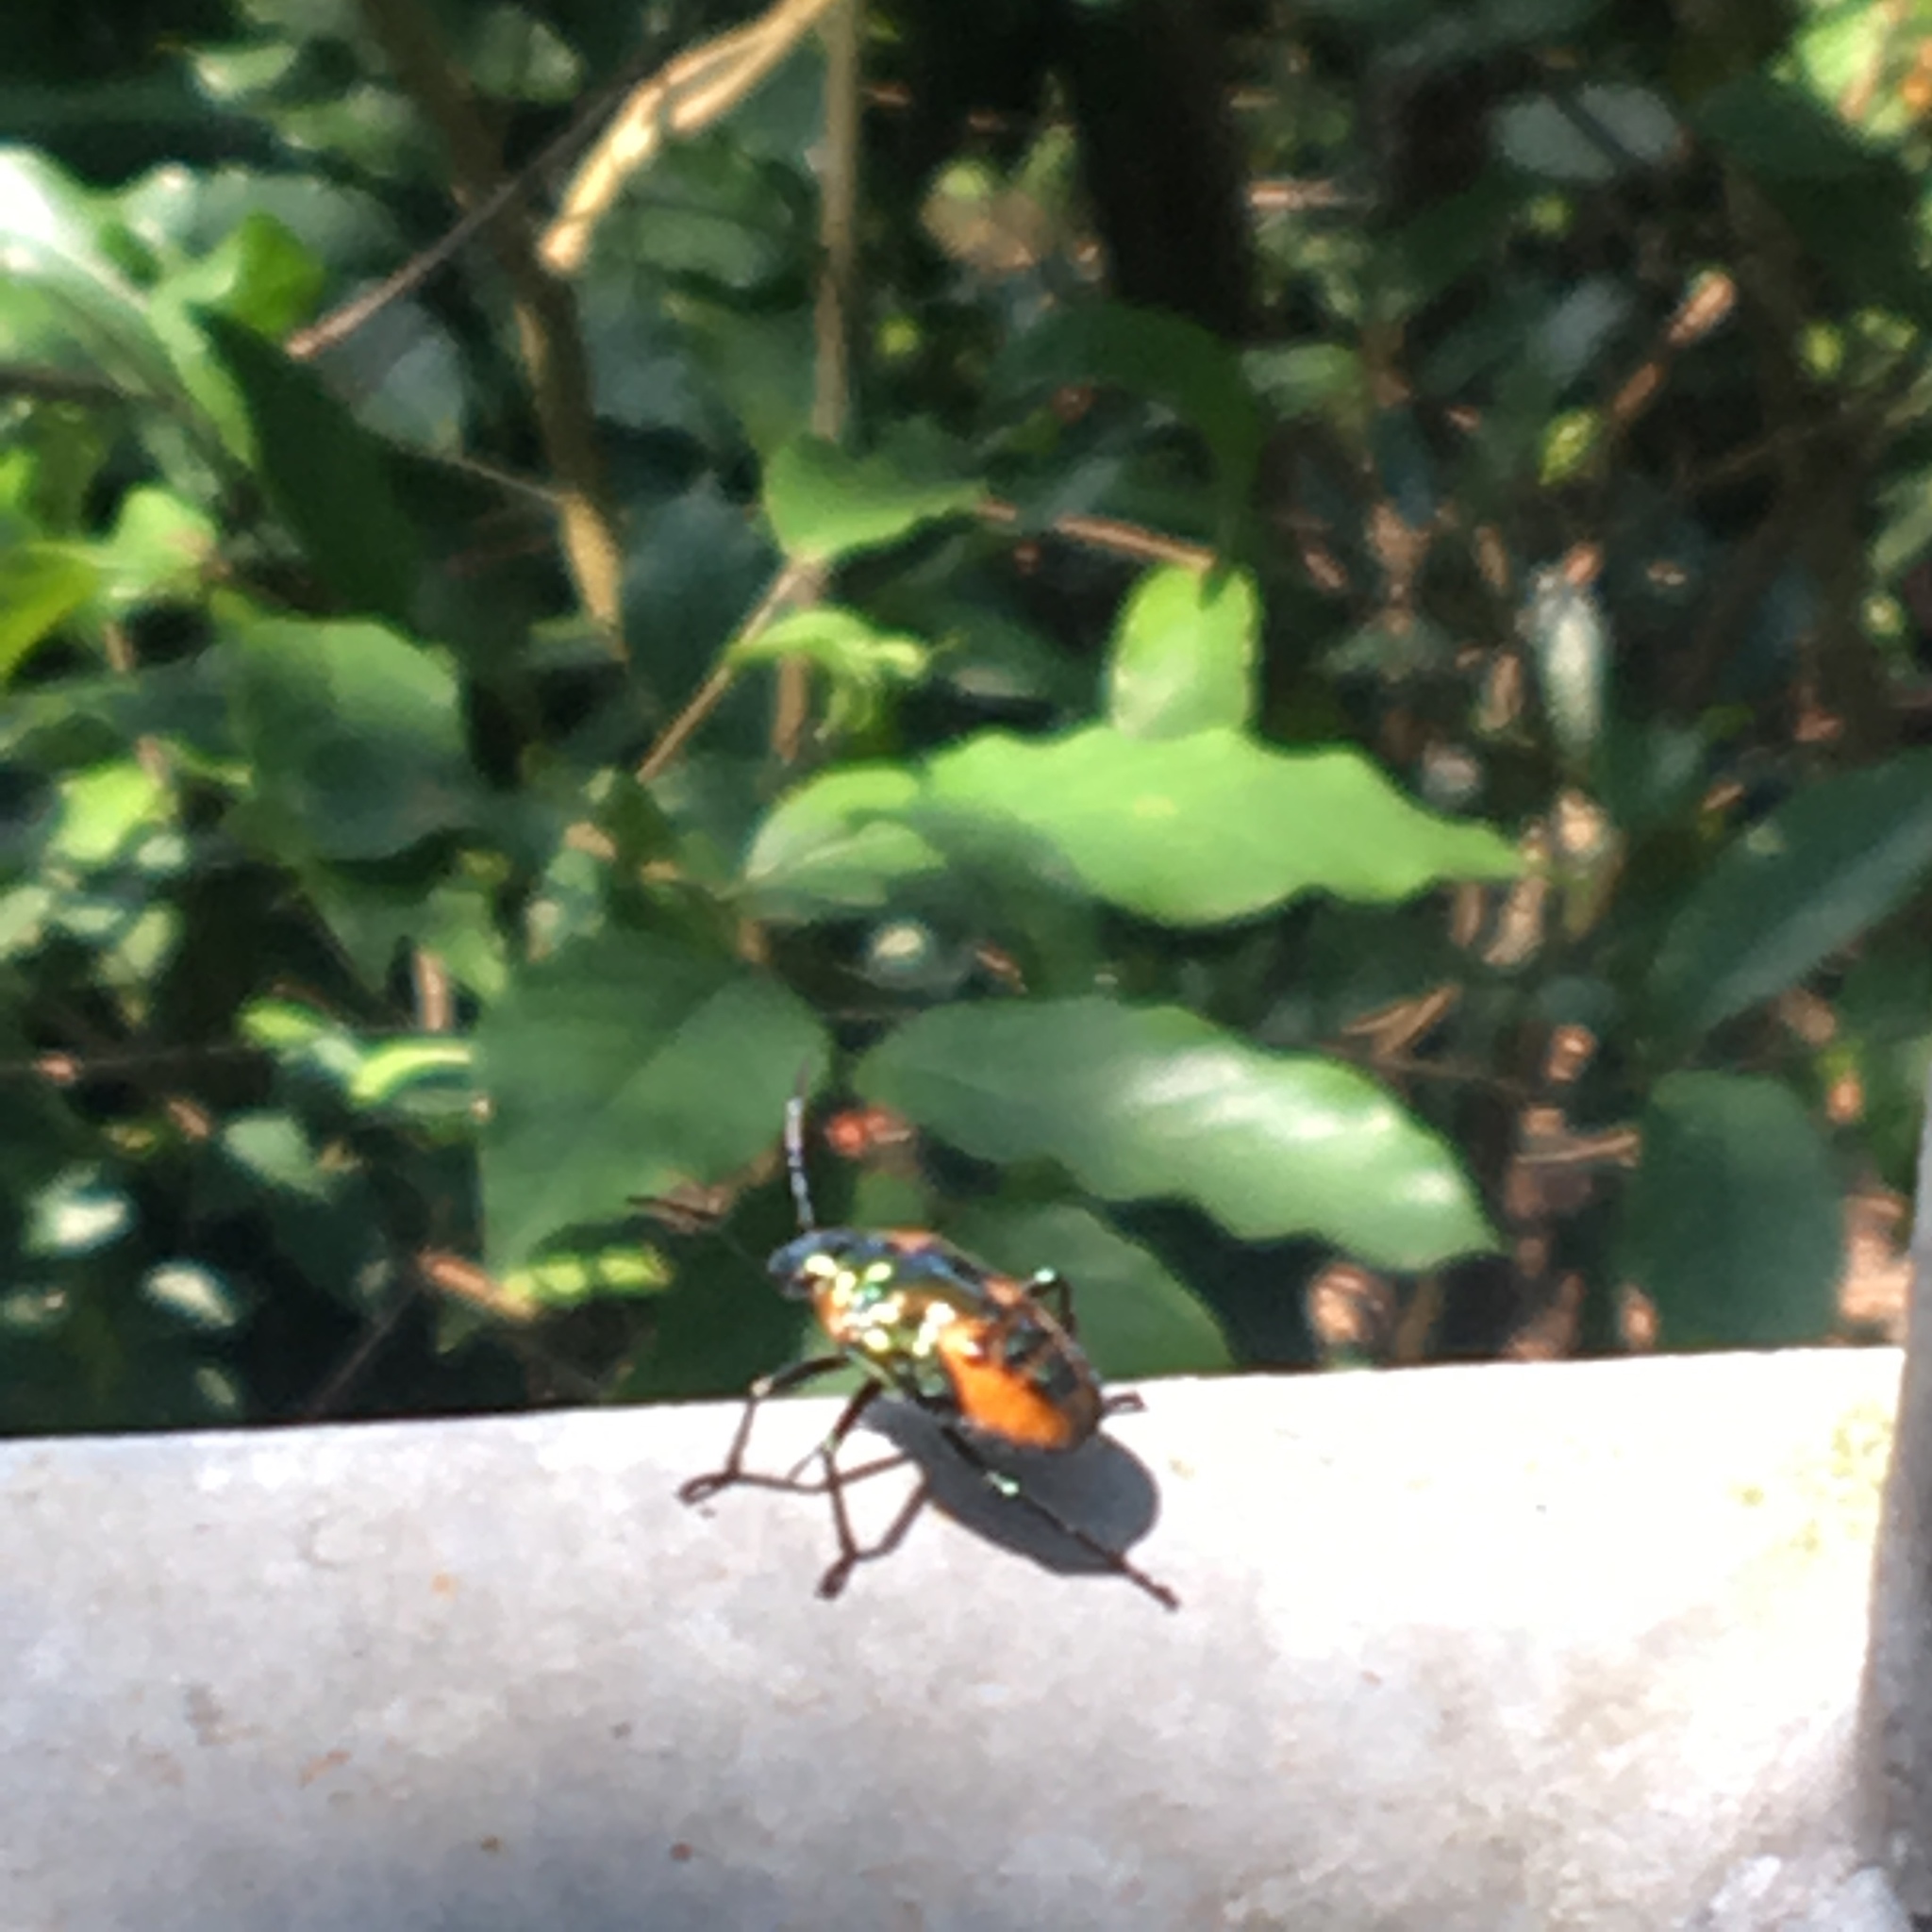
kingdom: Animalia
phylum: Arthropoda
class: Insecta
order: Hemiptera
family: Scutelleridae
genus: Cantao
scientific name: Cantao ocellatus
